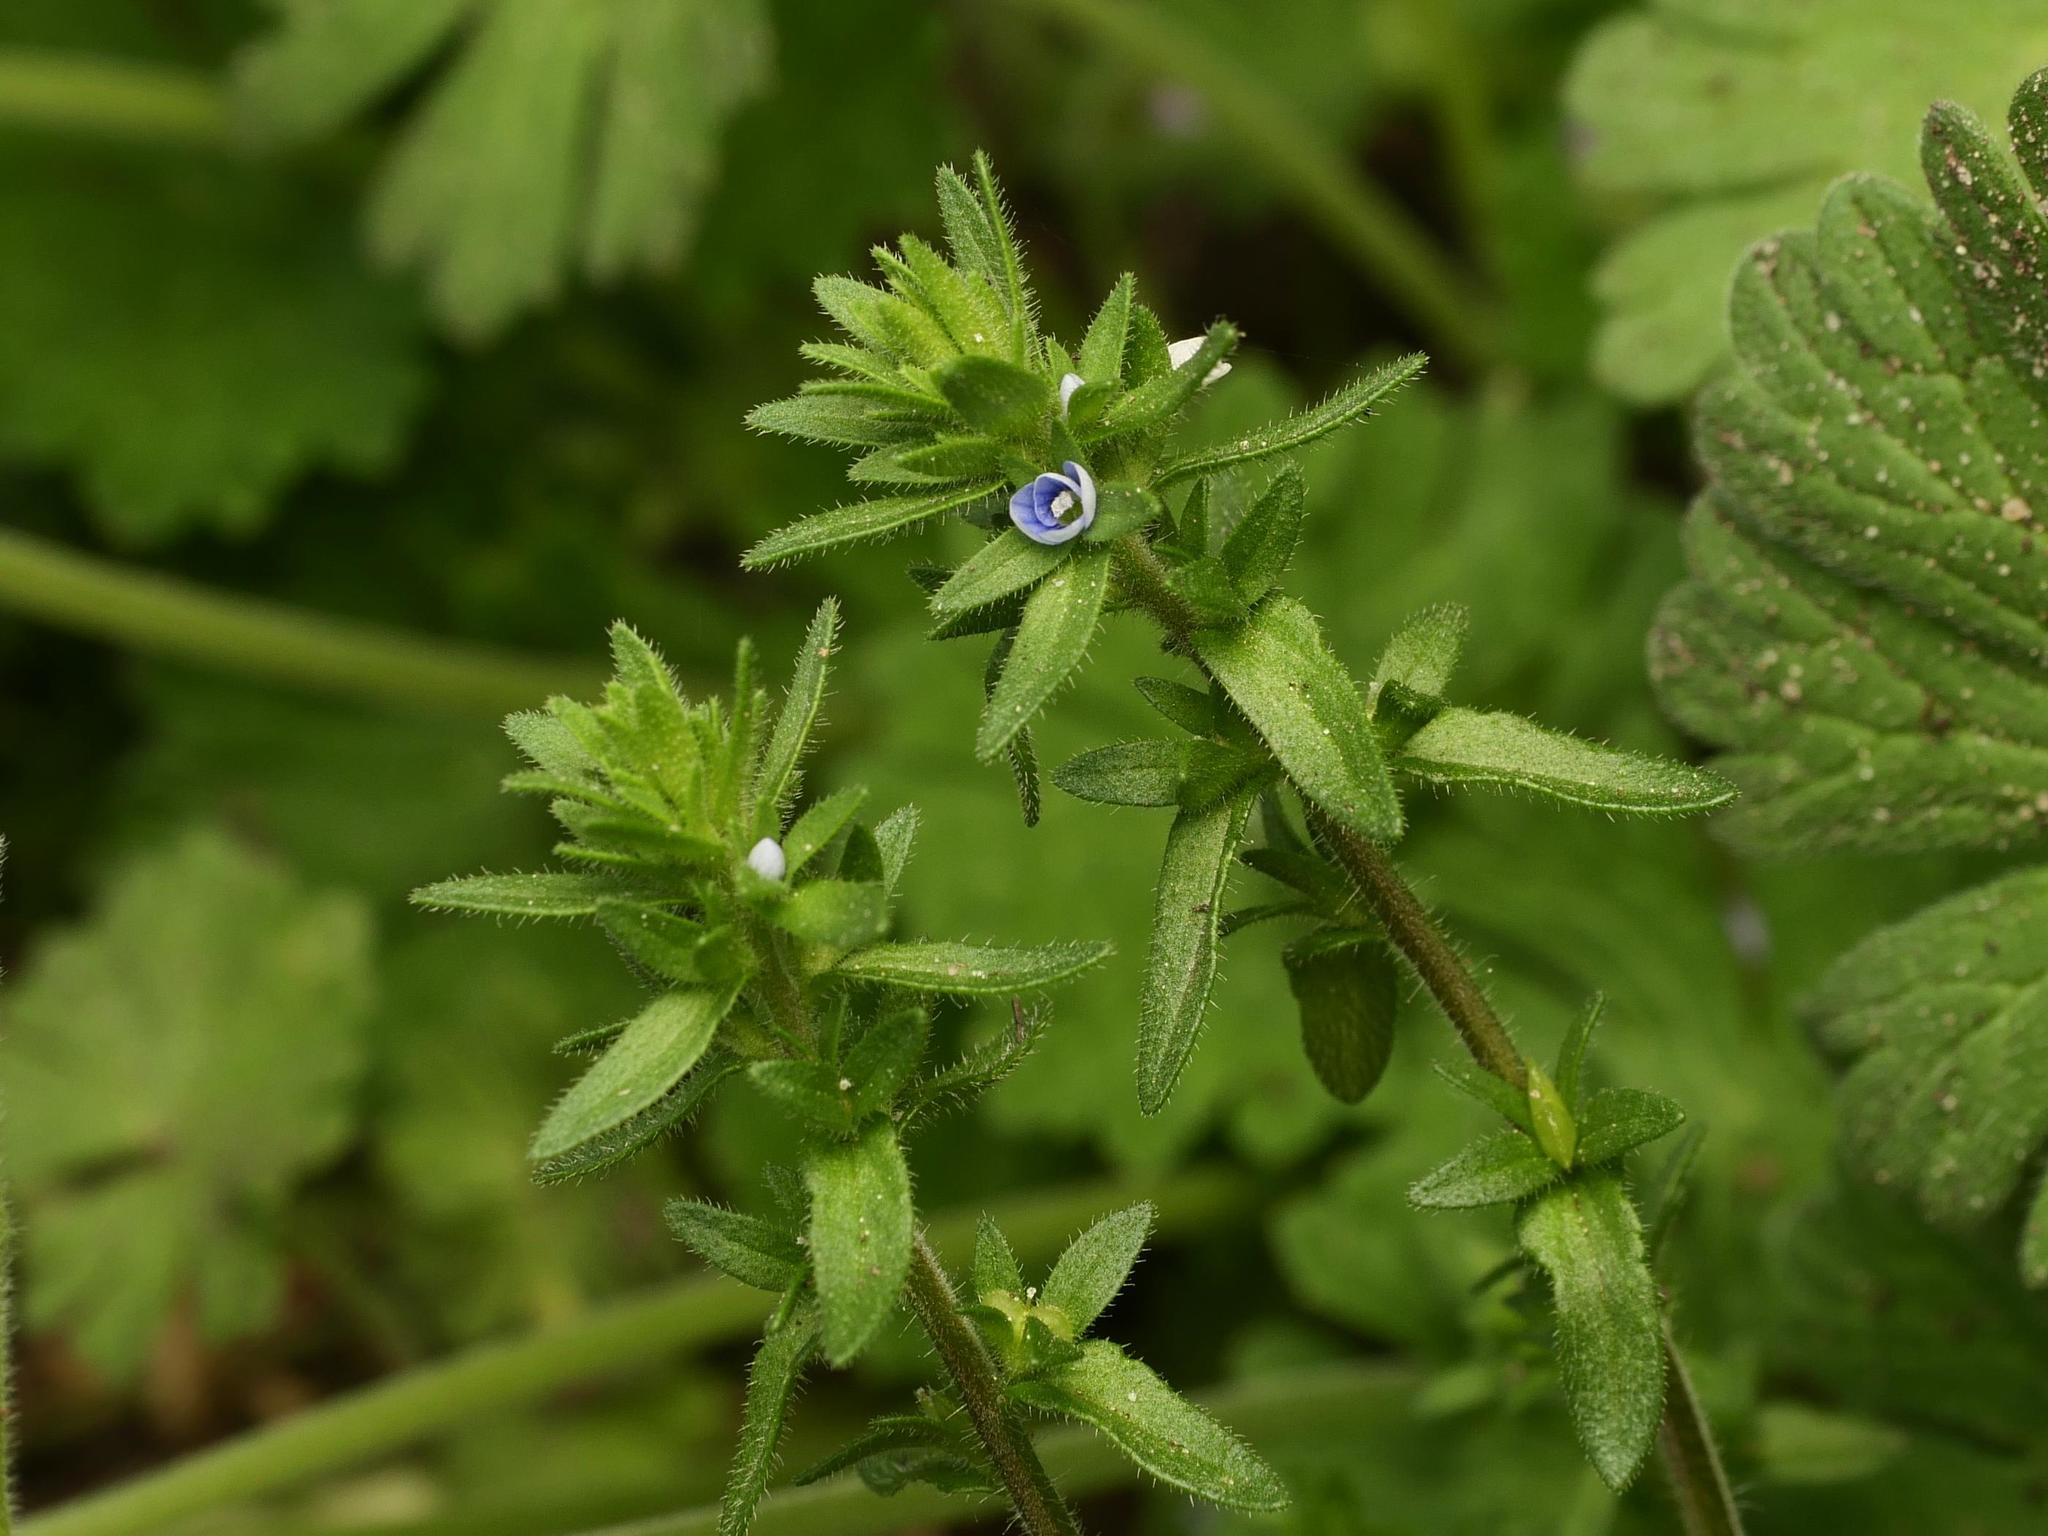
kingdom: Plantae
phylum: Tracheophyta
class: Magnoliopsida
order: Lamiales
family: Plantaginaceae
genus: Veronica
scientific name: Veronica arvensis
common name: Corn speedwell
